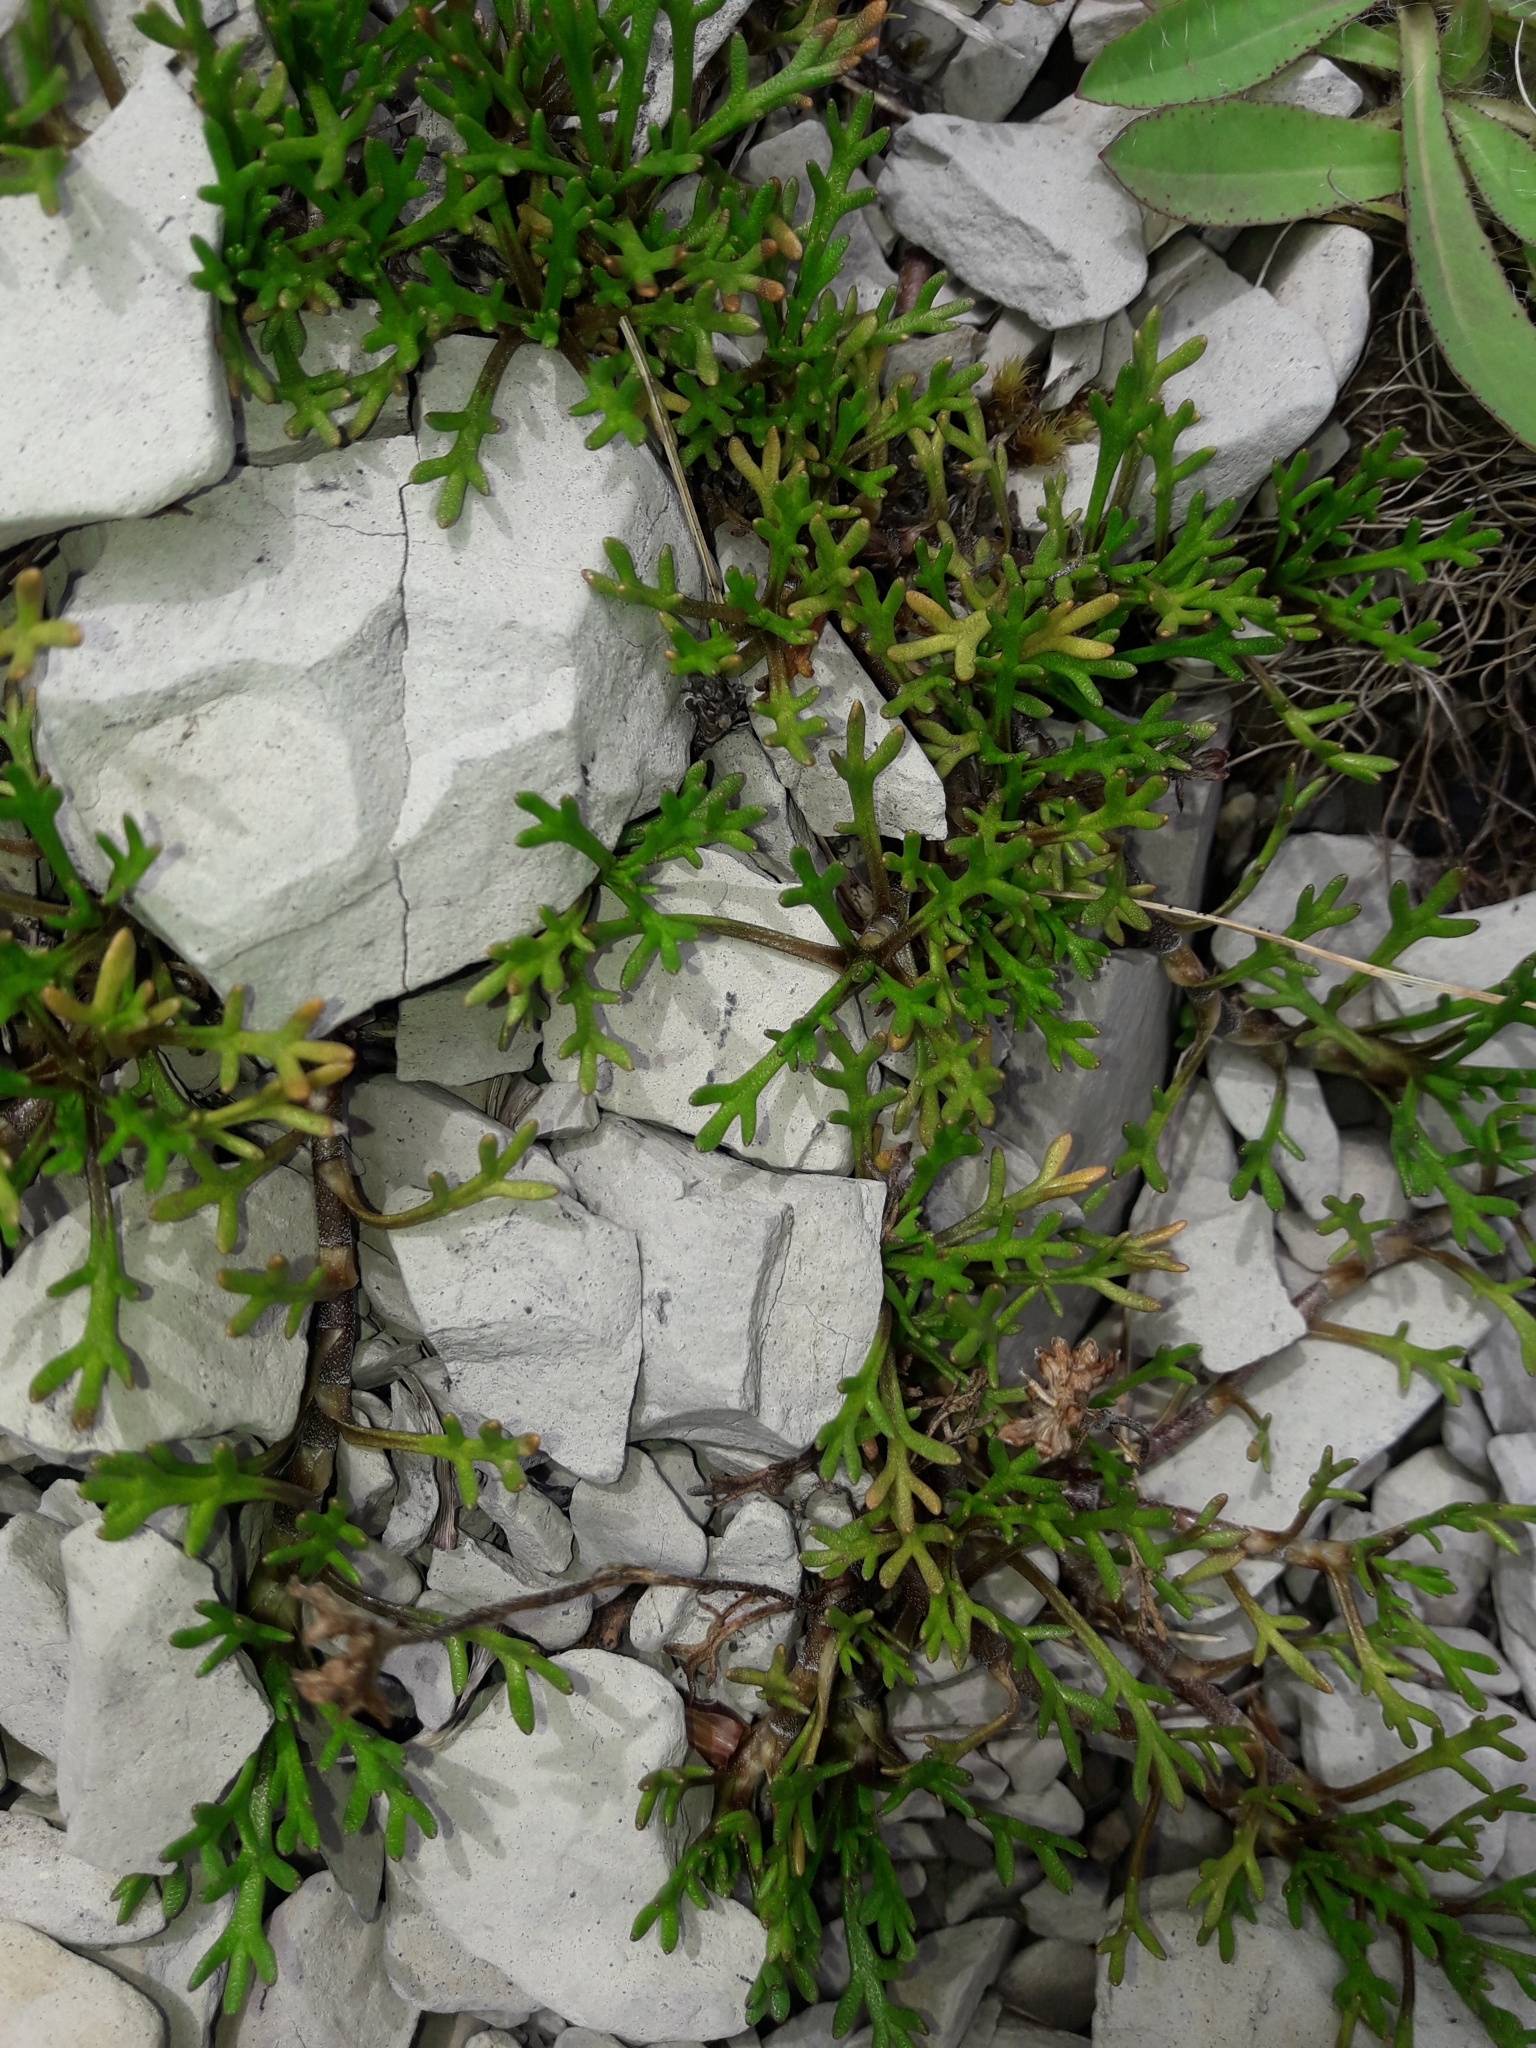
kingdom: Plantae
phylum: Tracheophyta
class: Magnoliopsida
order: Asterales
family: Asteraceae
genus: Leptinella
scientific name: Leptinella pyrethrifolia
